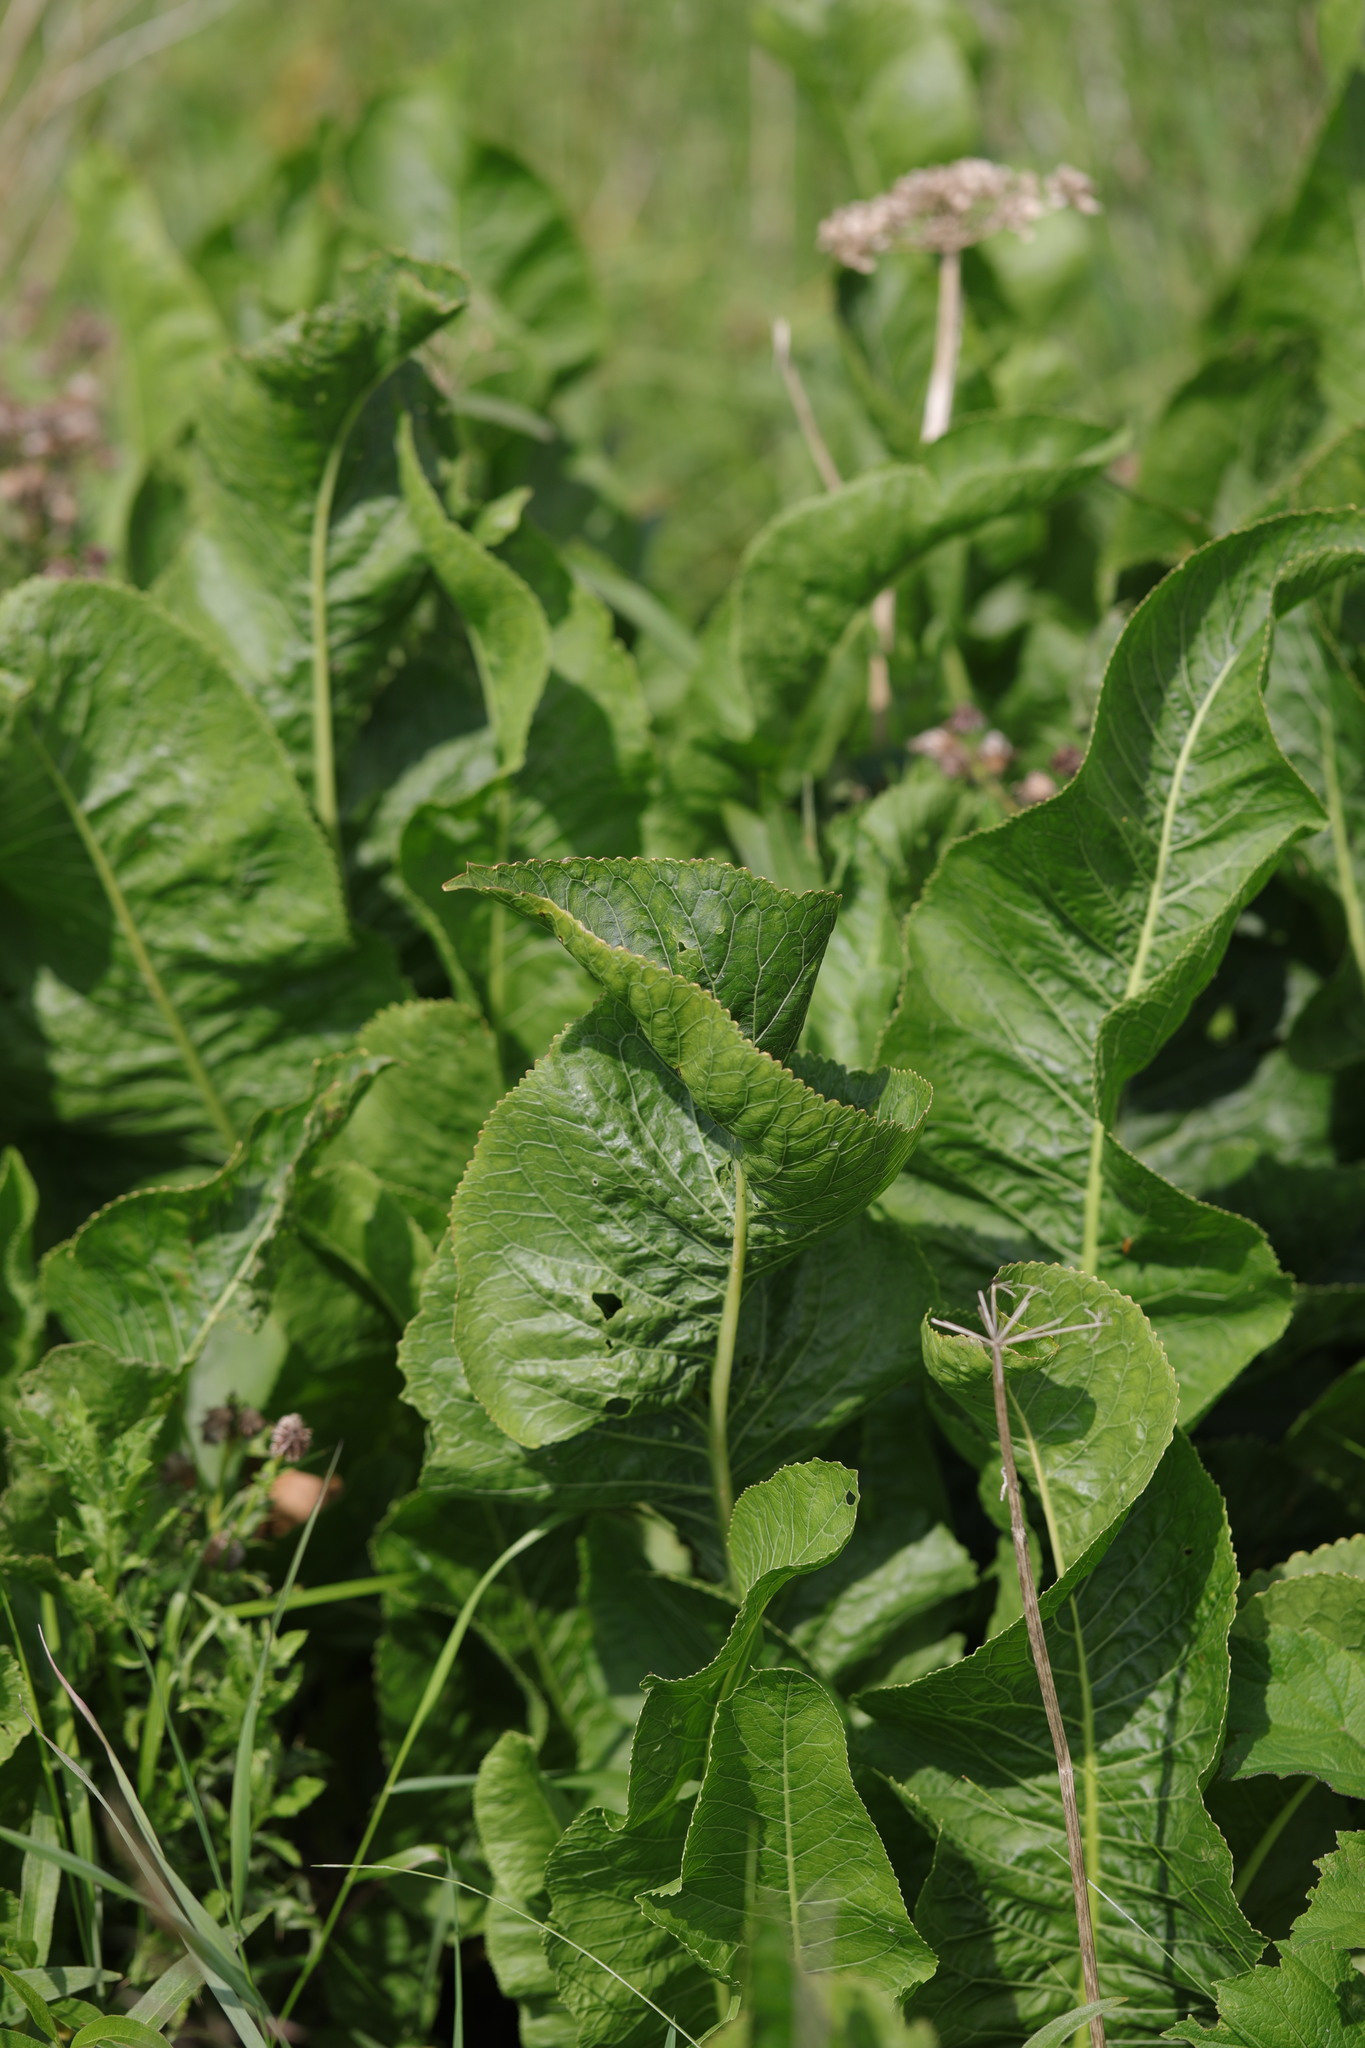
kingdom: Plantae
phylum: Tracheophyta
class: Magnoliopsida
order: Brassicales
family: Brassicaceae
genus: Armoracia
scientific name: Armoracia rusticana
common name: Horseradish
